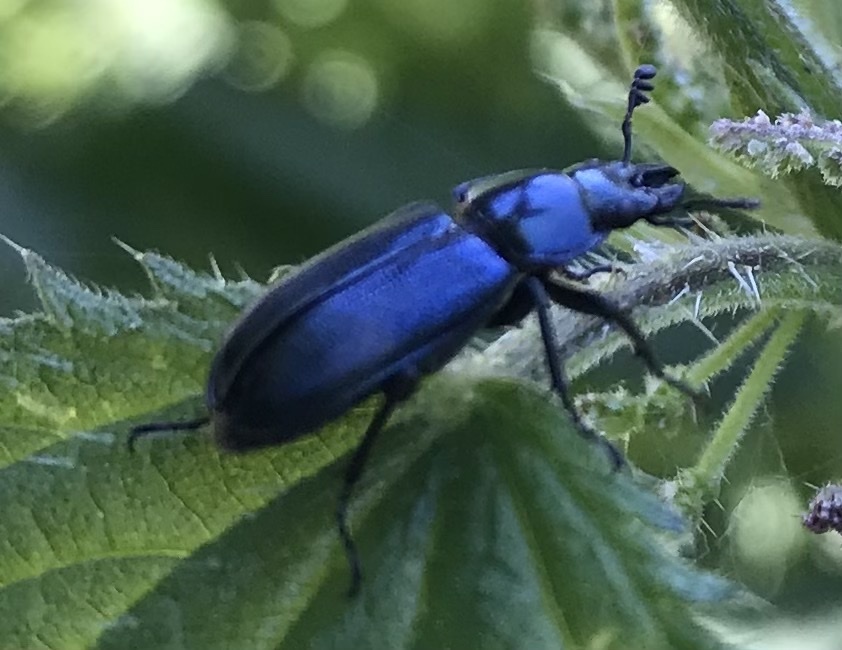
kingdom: Animalia
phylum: Arthropoda
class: Insecta
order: Coleoptera
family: Lucanidae
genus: Platycerus
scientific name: Platycerus caraboides
